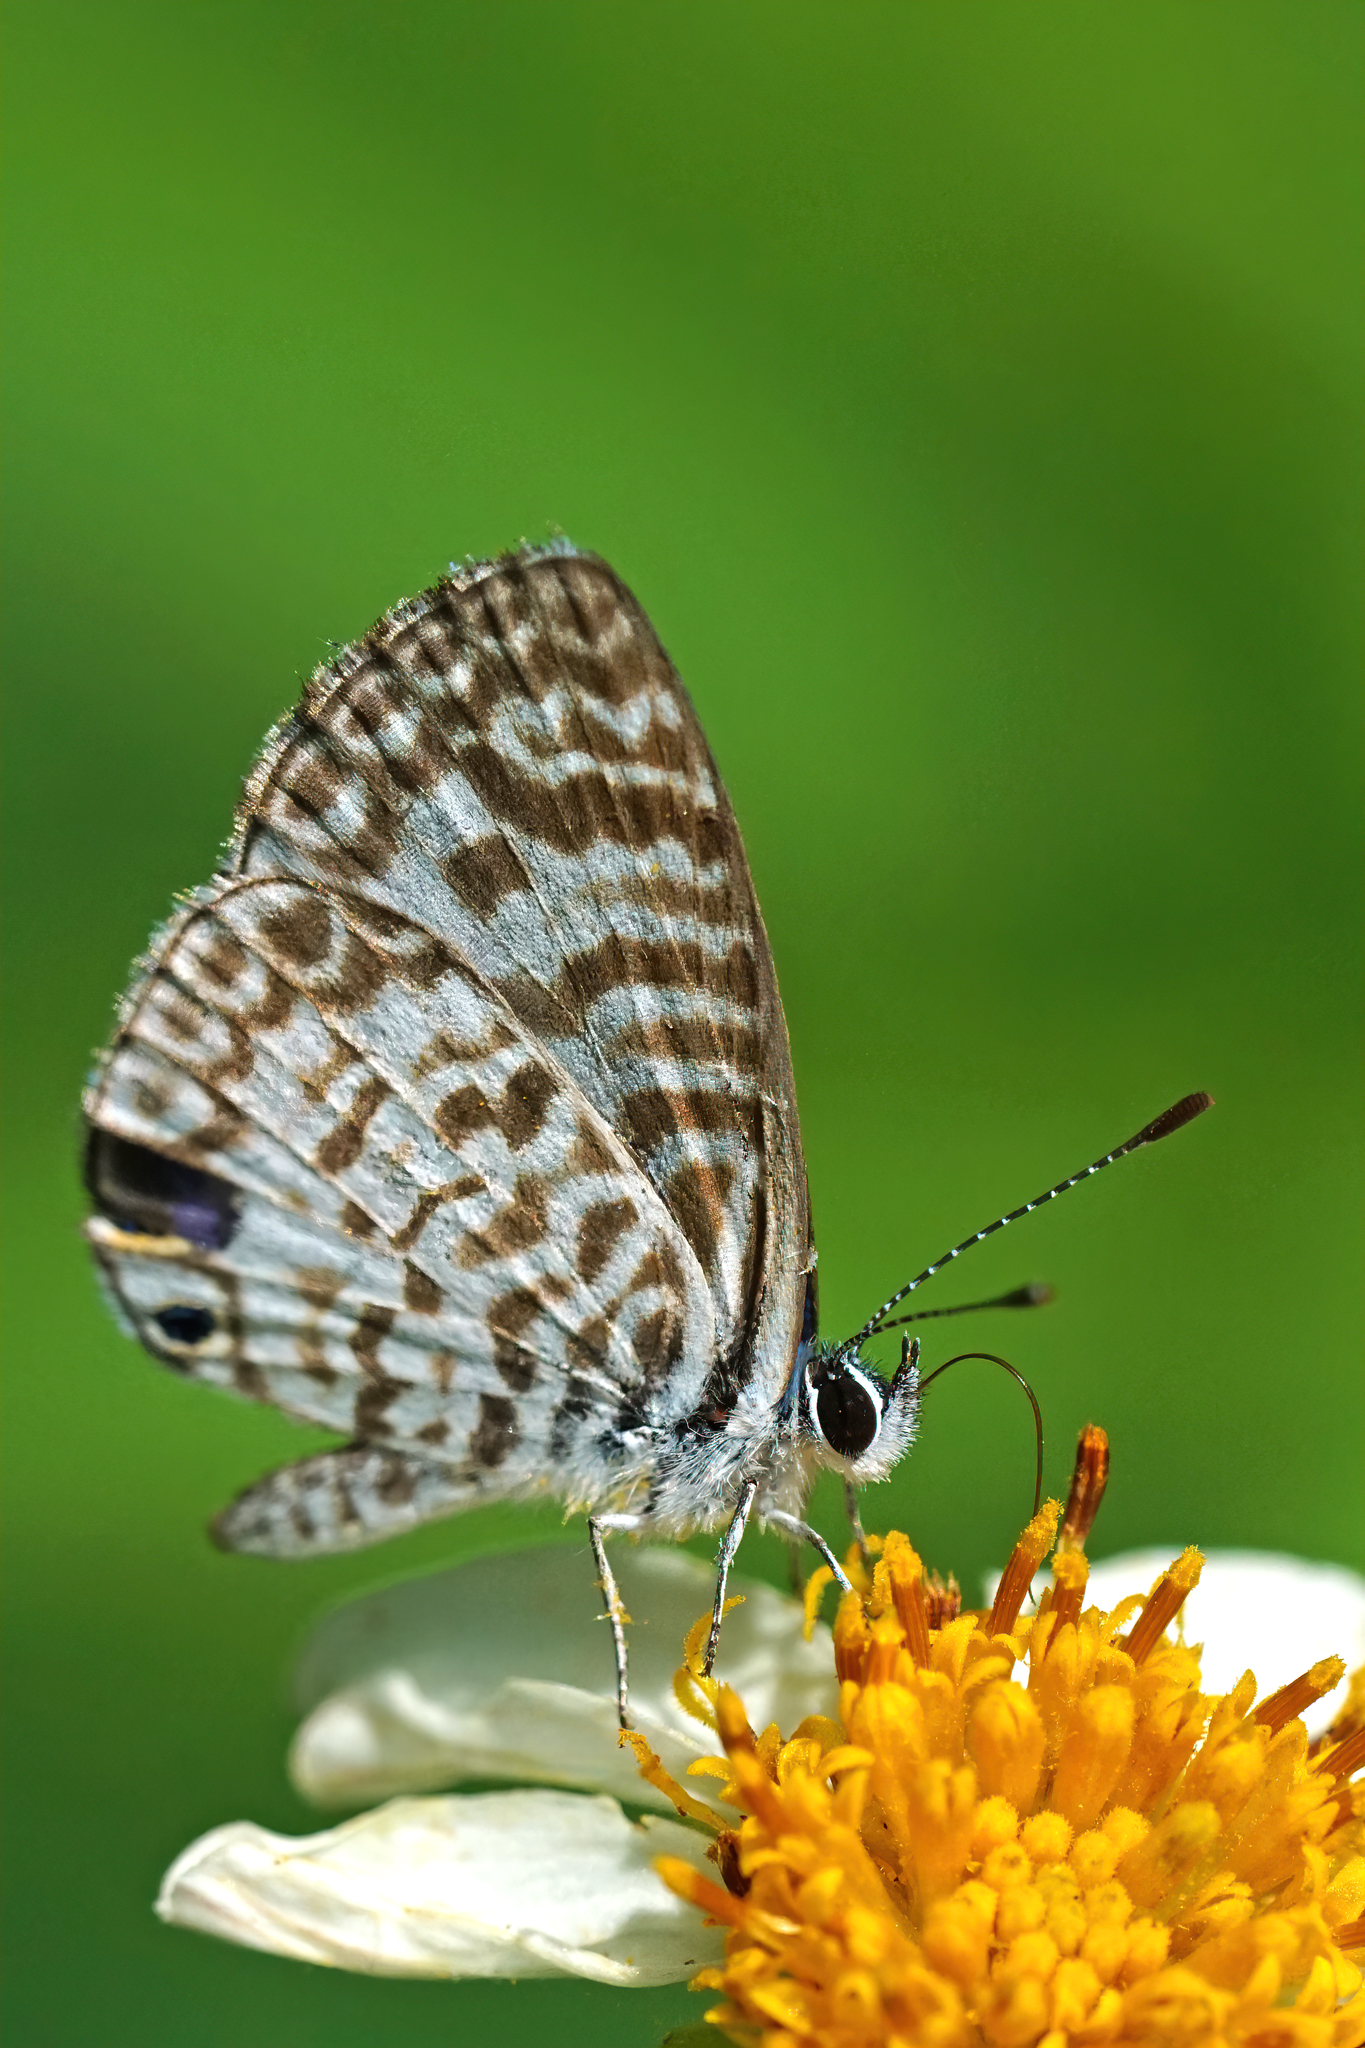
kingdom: Animalia
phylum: Arthropoda
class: Insecta
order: Lepidoptera
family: Lycaenidae
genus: Leptotes
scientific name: Leptotes cassius
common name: Cassius blue
